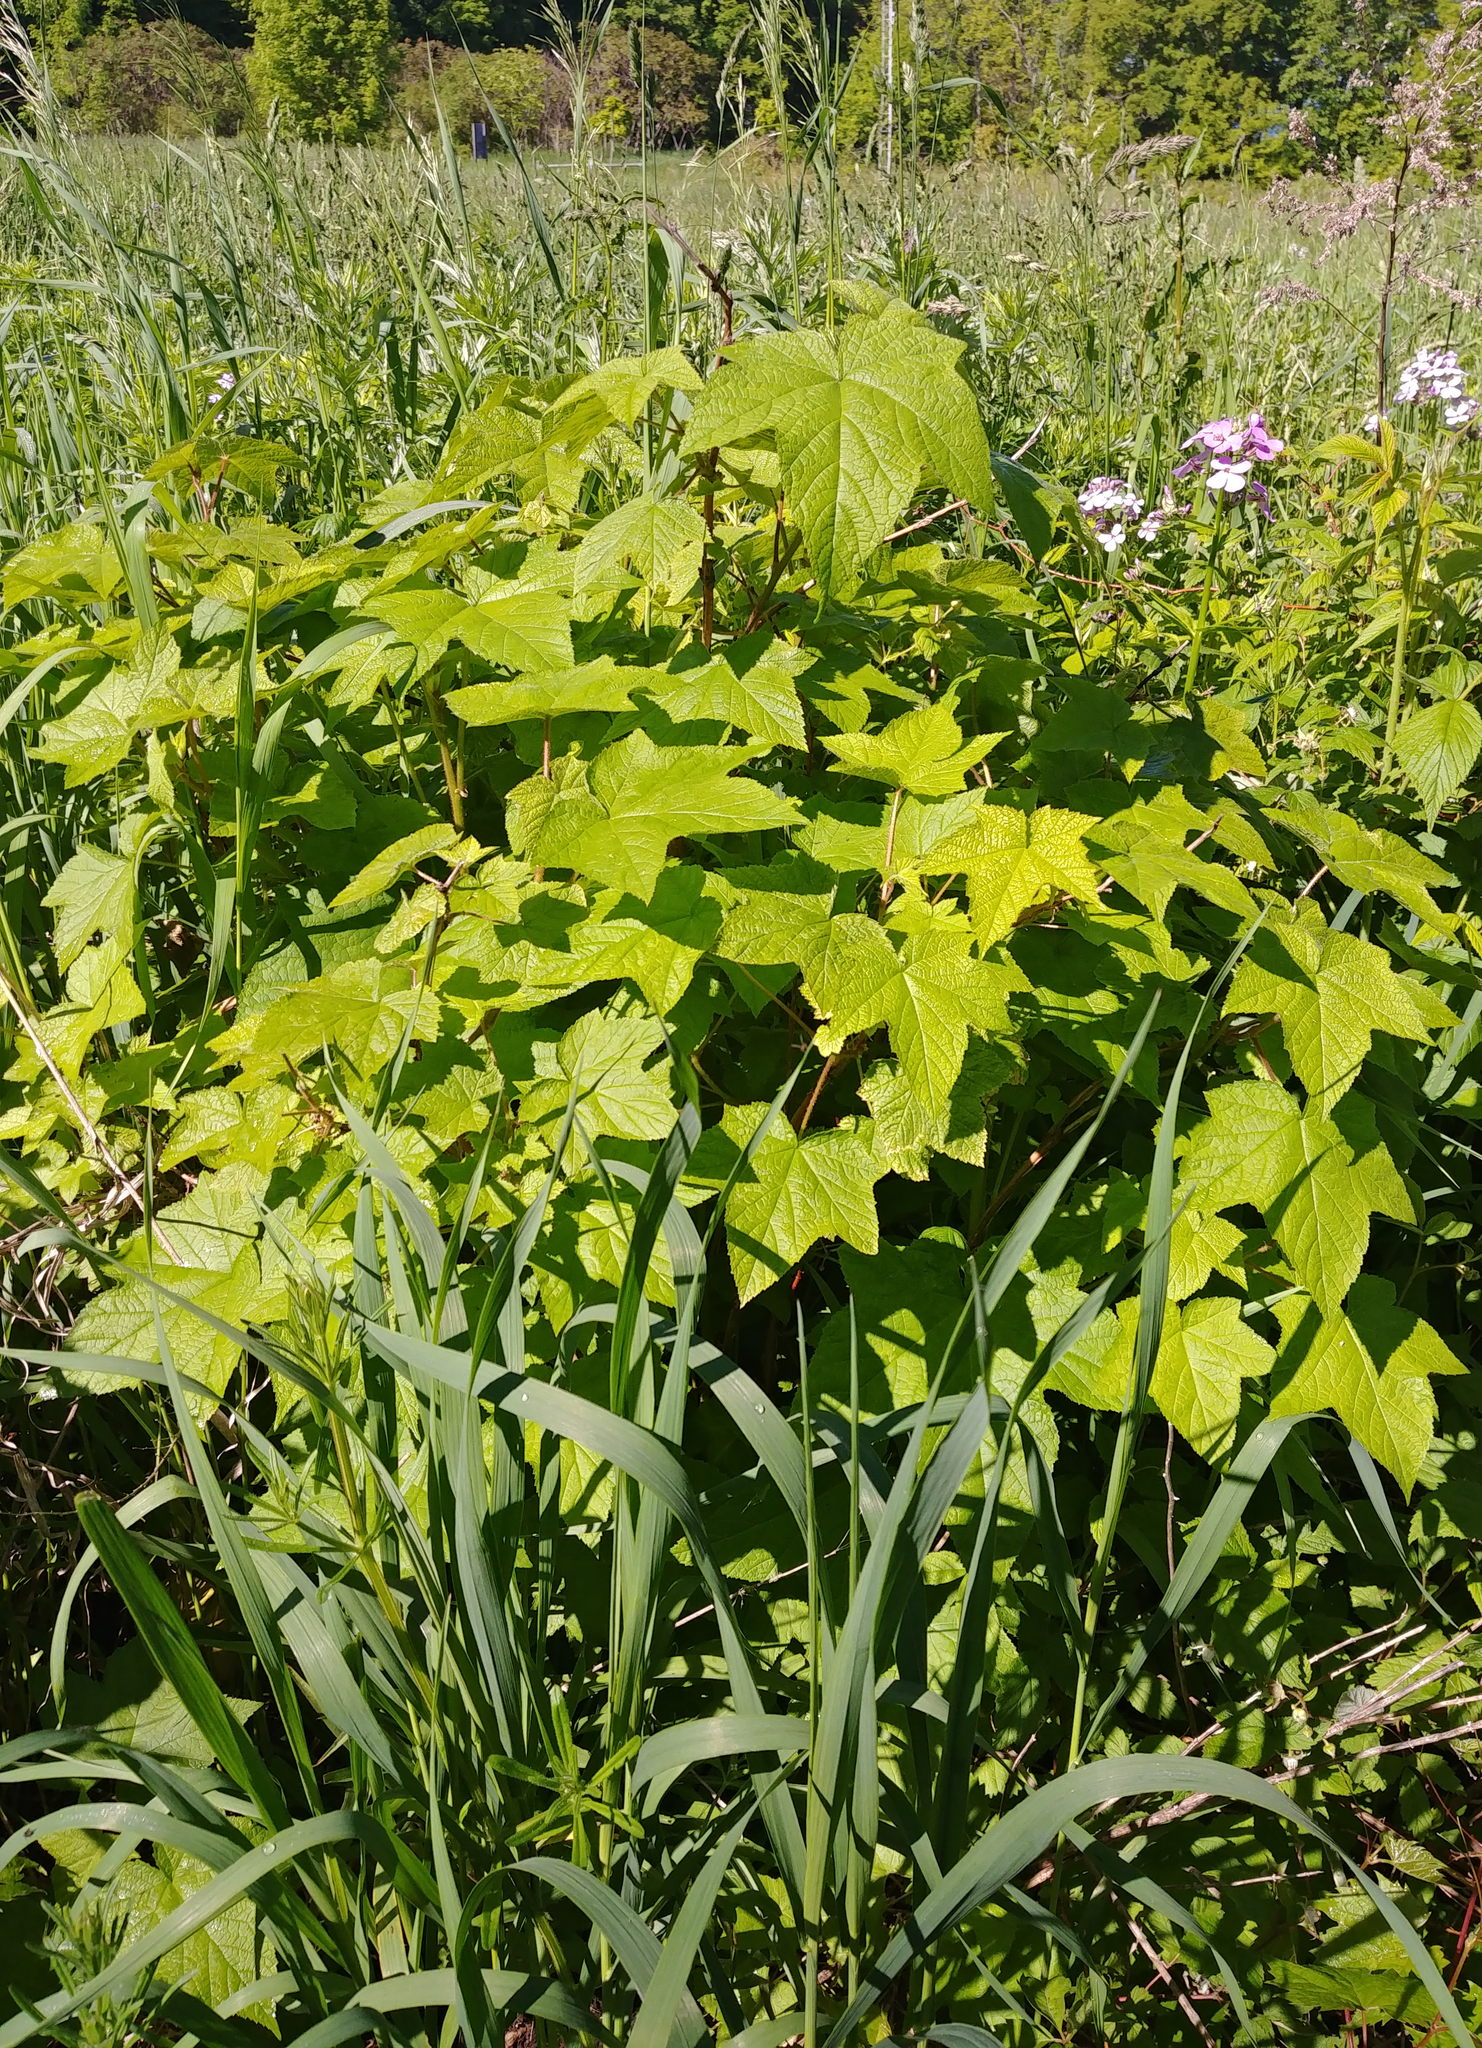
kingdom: Plantae
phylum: Tracheophyta
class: Magnoliopsida
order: Rosales
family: Rosaceae
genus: Rubus
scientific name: Rubus odoratus
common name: Purple-flowered raspberry
